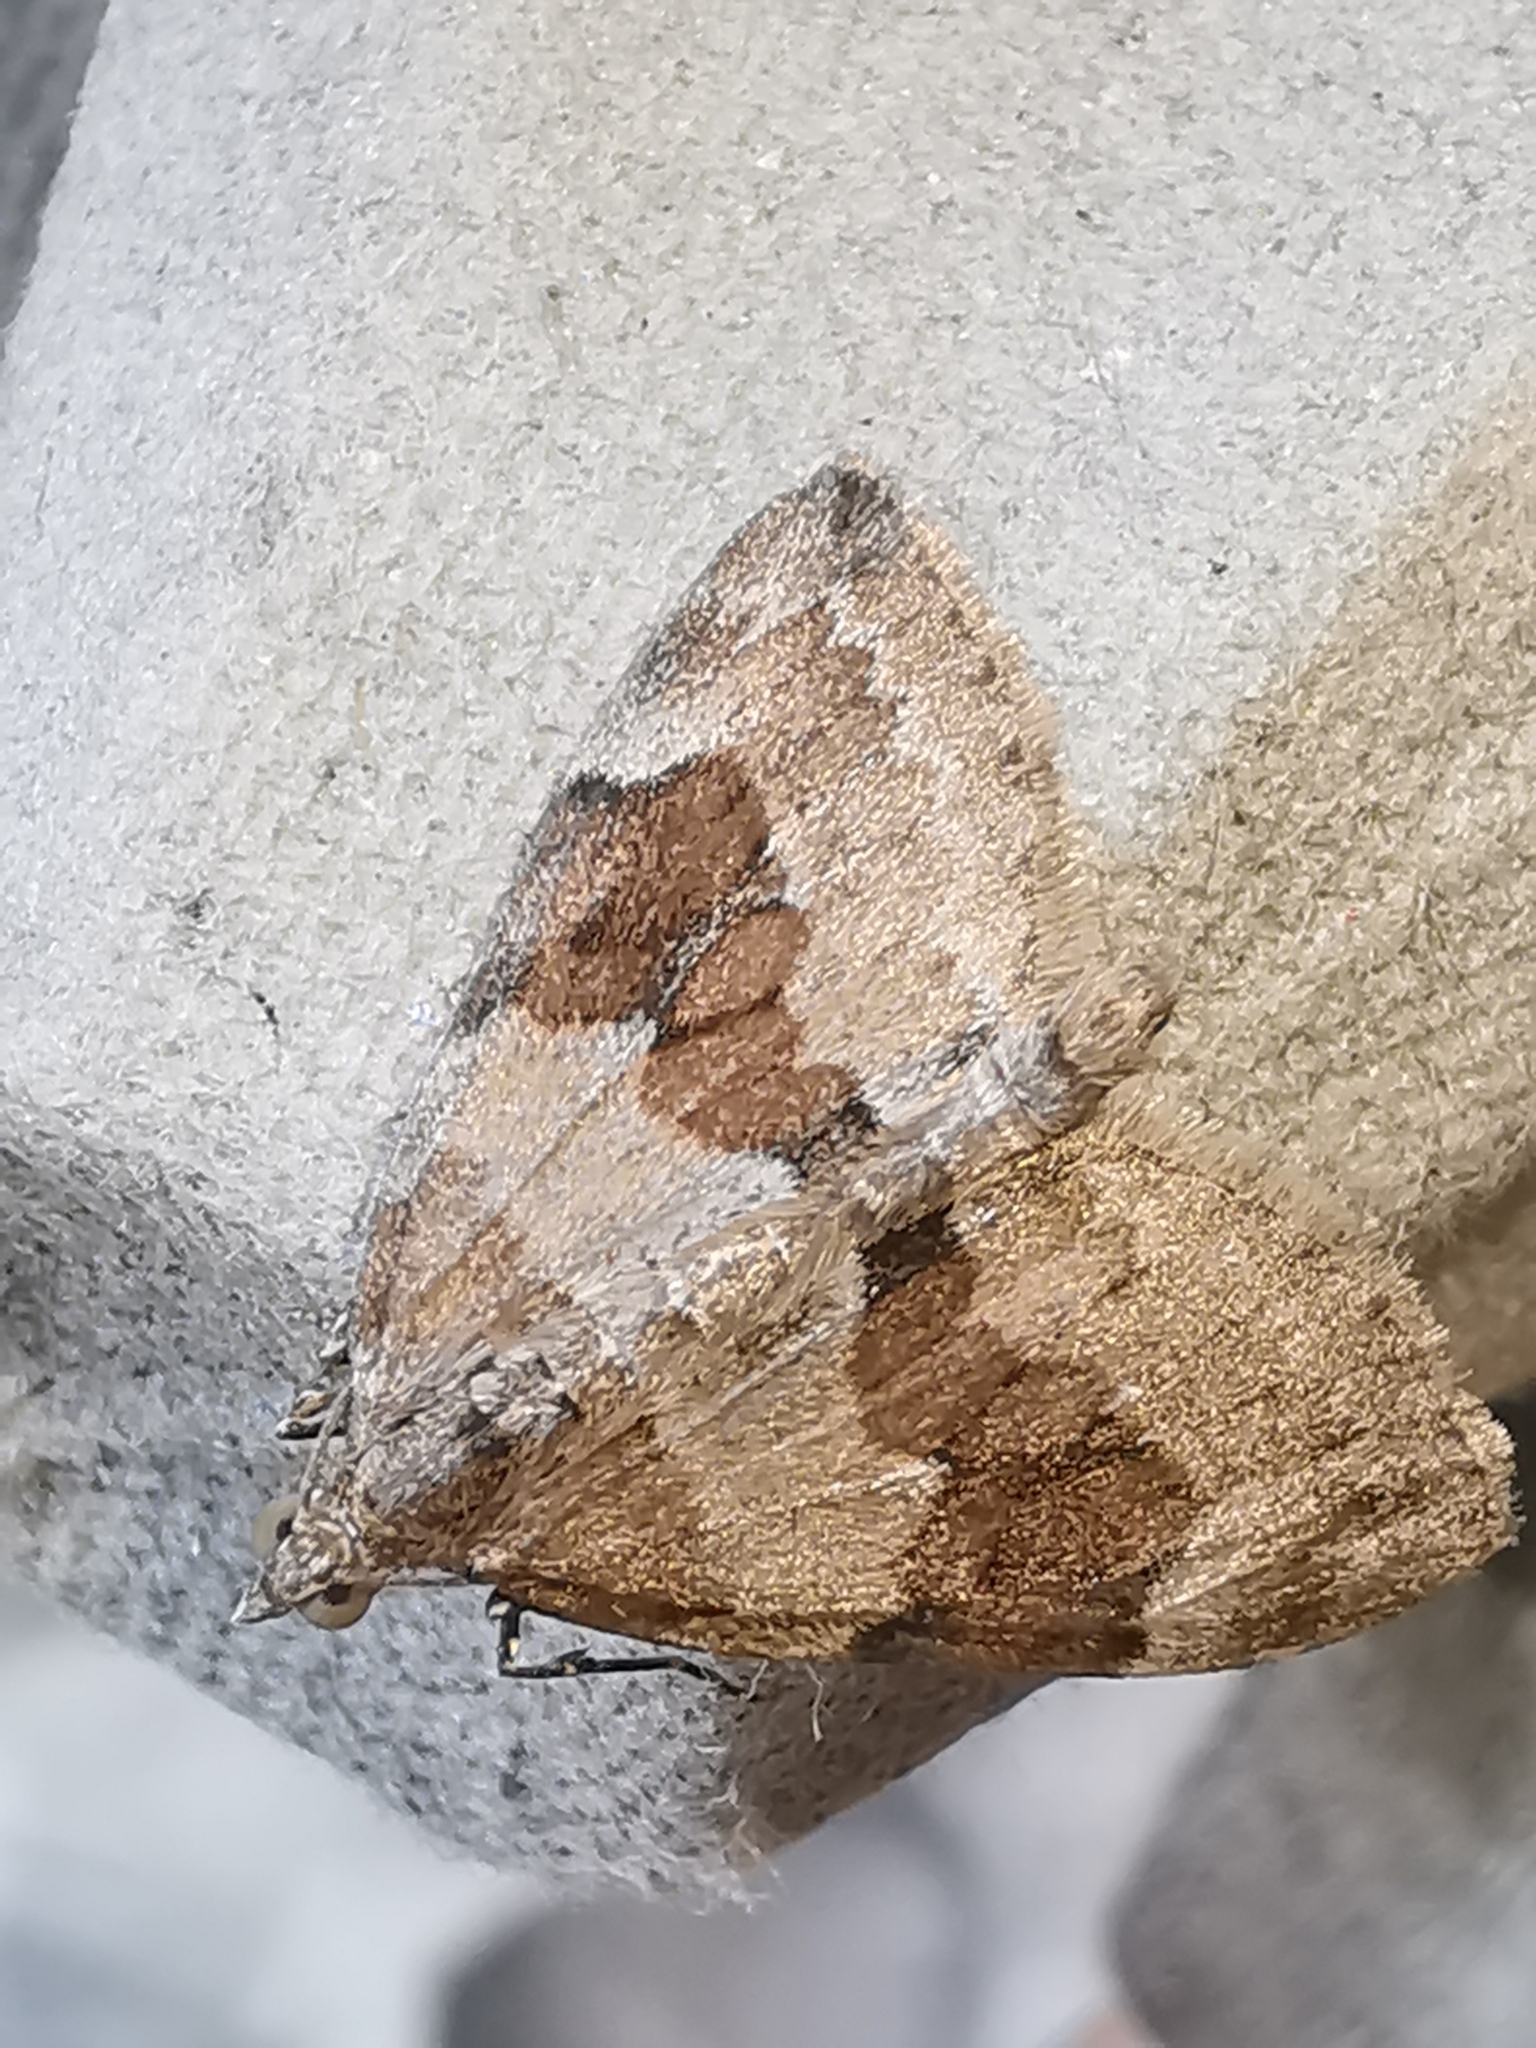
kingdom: Animalia
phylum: Arthropoda
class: Insecta
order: Lepidoptera
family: Geometridae
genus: Thera
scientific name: Thera obeliscata
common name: Grey pine carpet
